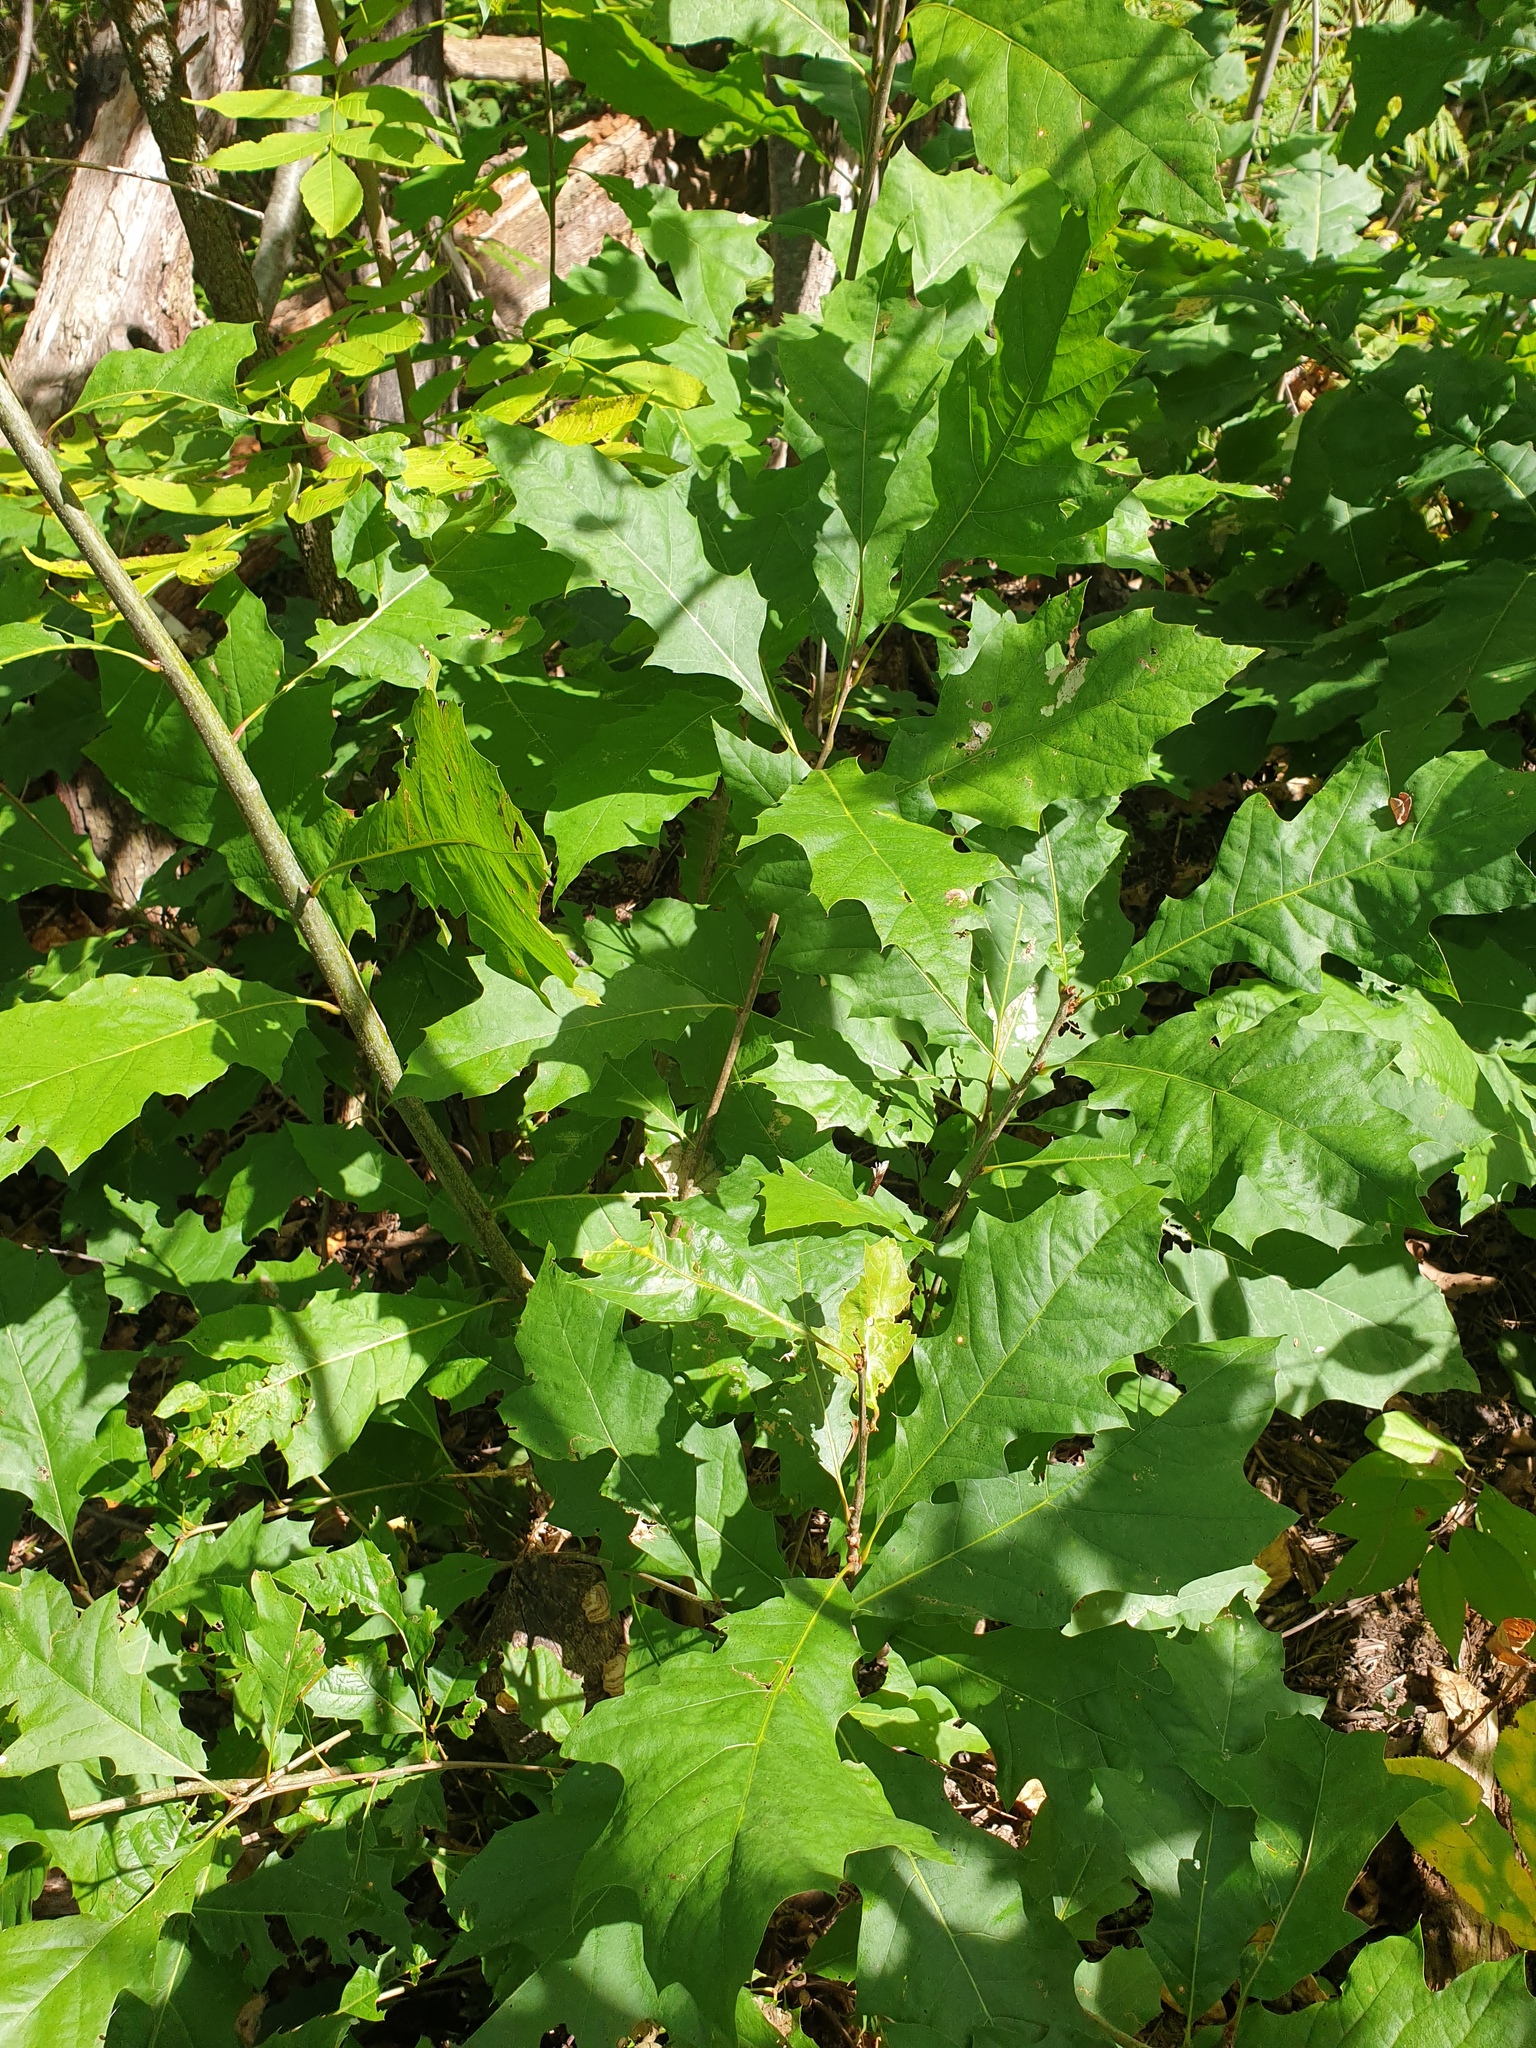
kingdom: Plantae
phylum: Tracheophyta
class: Magnoliopsida
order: Fagales
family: Fagaceae
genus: Quercus
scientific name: Quercus rubra
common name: Red oak
